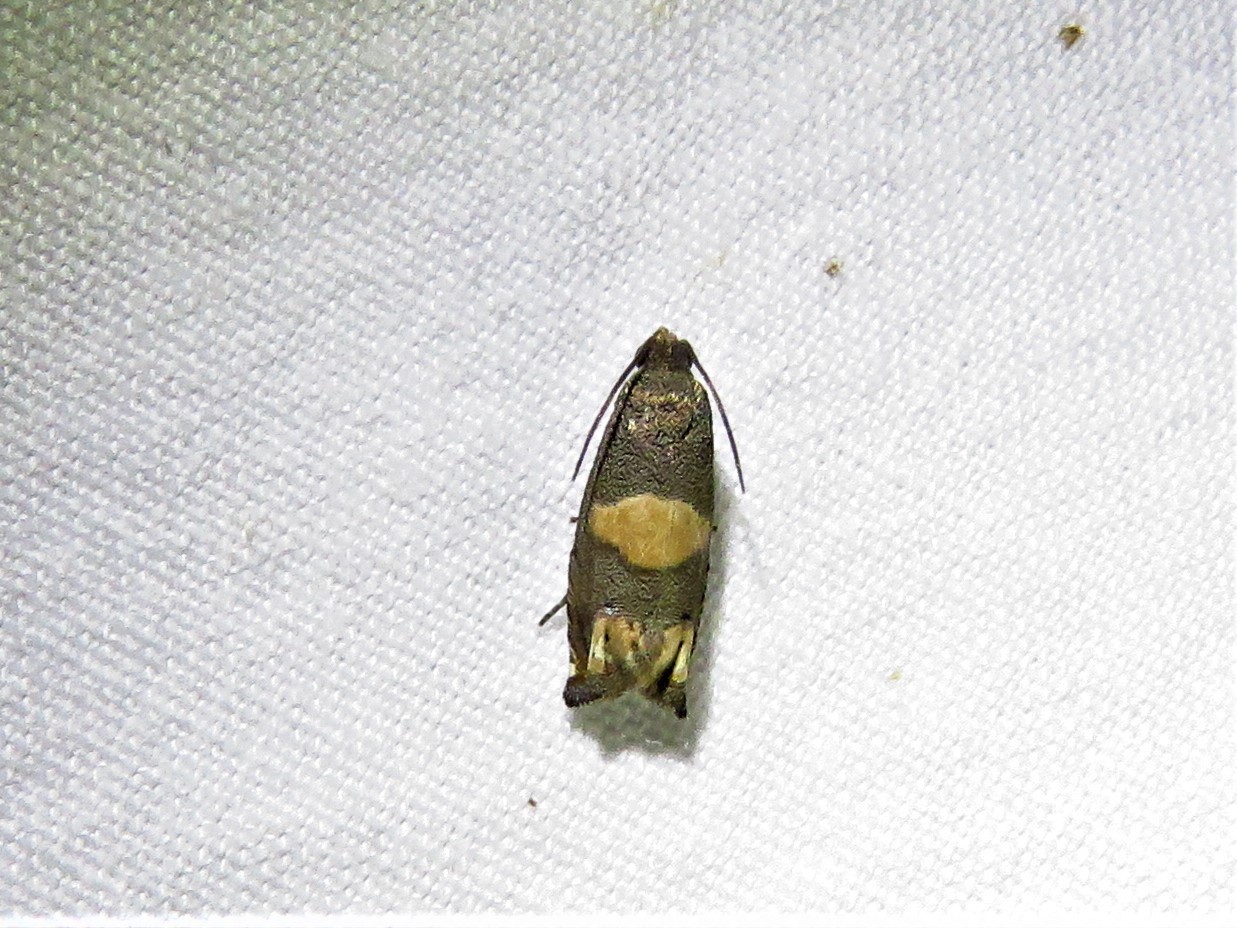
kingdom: Animalia
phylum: Arthropoda
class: Insecta
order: Lepidoptera
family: Tortricidae
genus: Epiblema
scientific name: Epiblema
